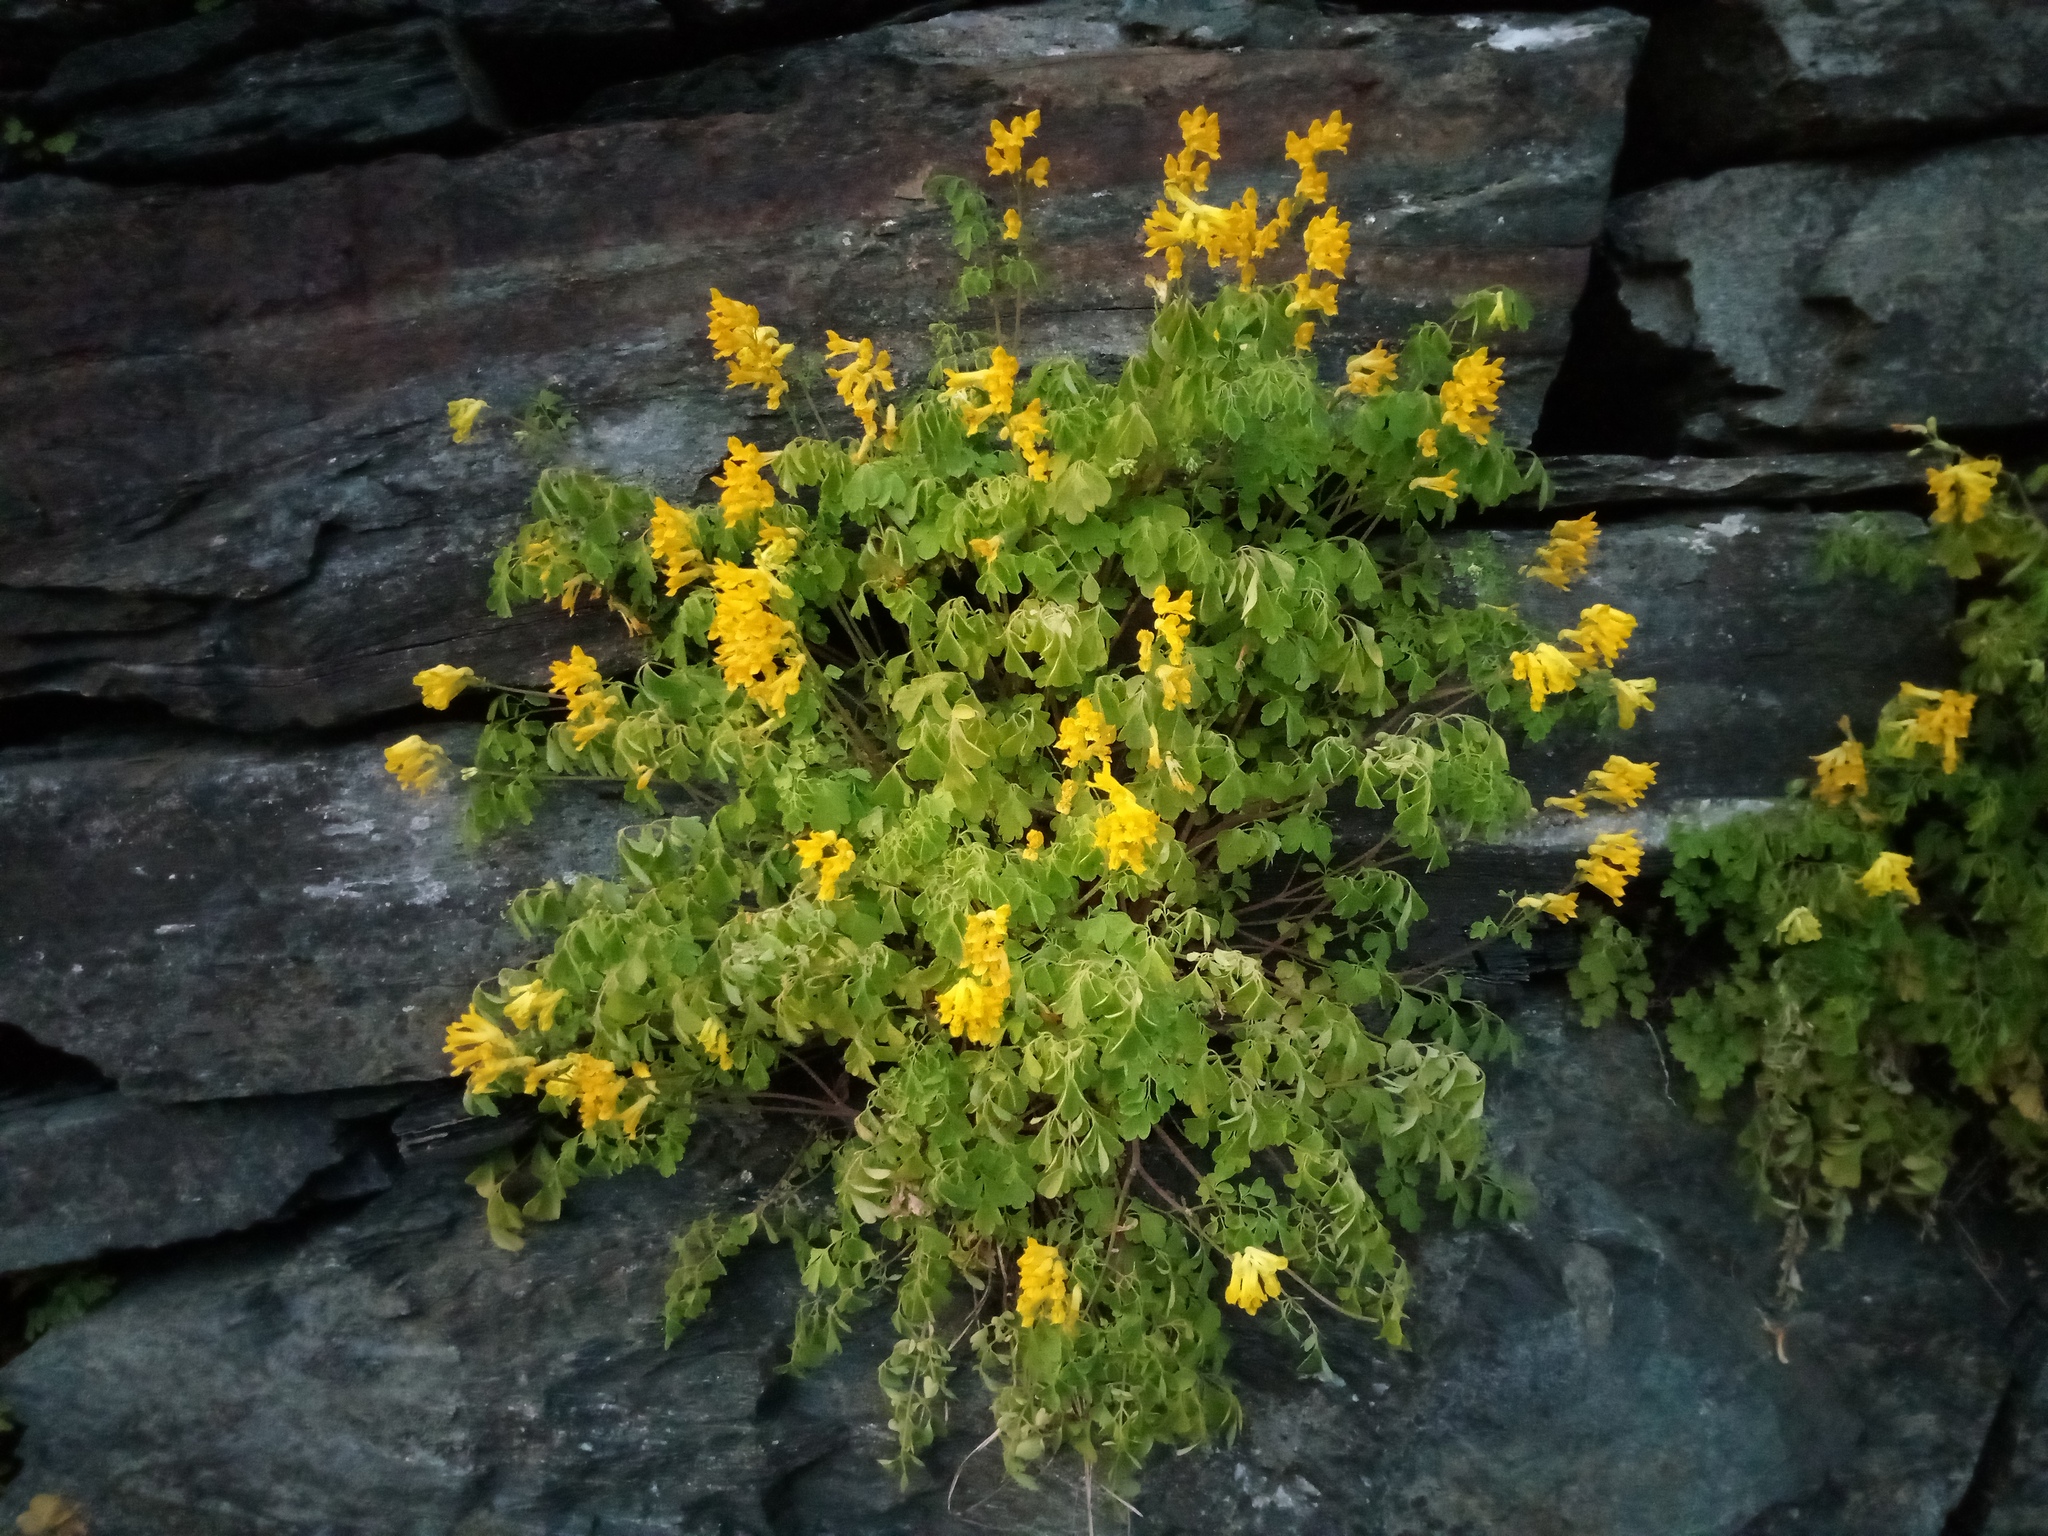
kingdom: Plantae
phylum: Tracheophyta
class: Magnoliopsida
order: Ranunculales
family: Papaveraceae
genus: Pseudofumaria
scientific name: Pseudofumaria lutea
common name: Yellow corydalis
